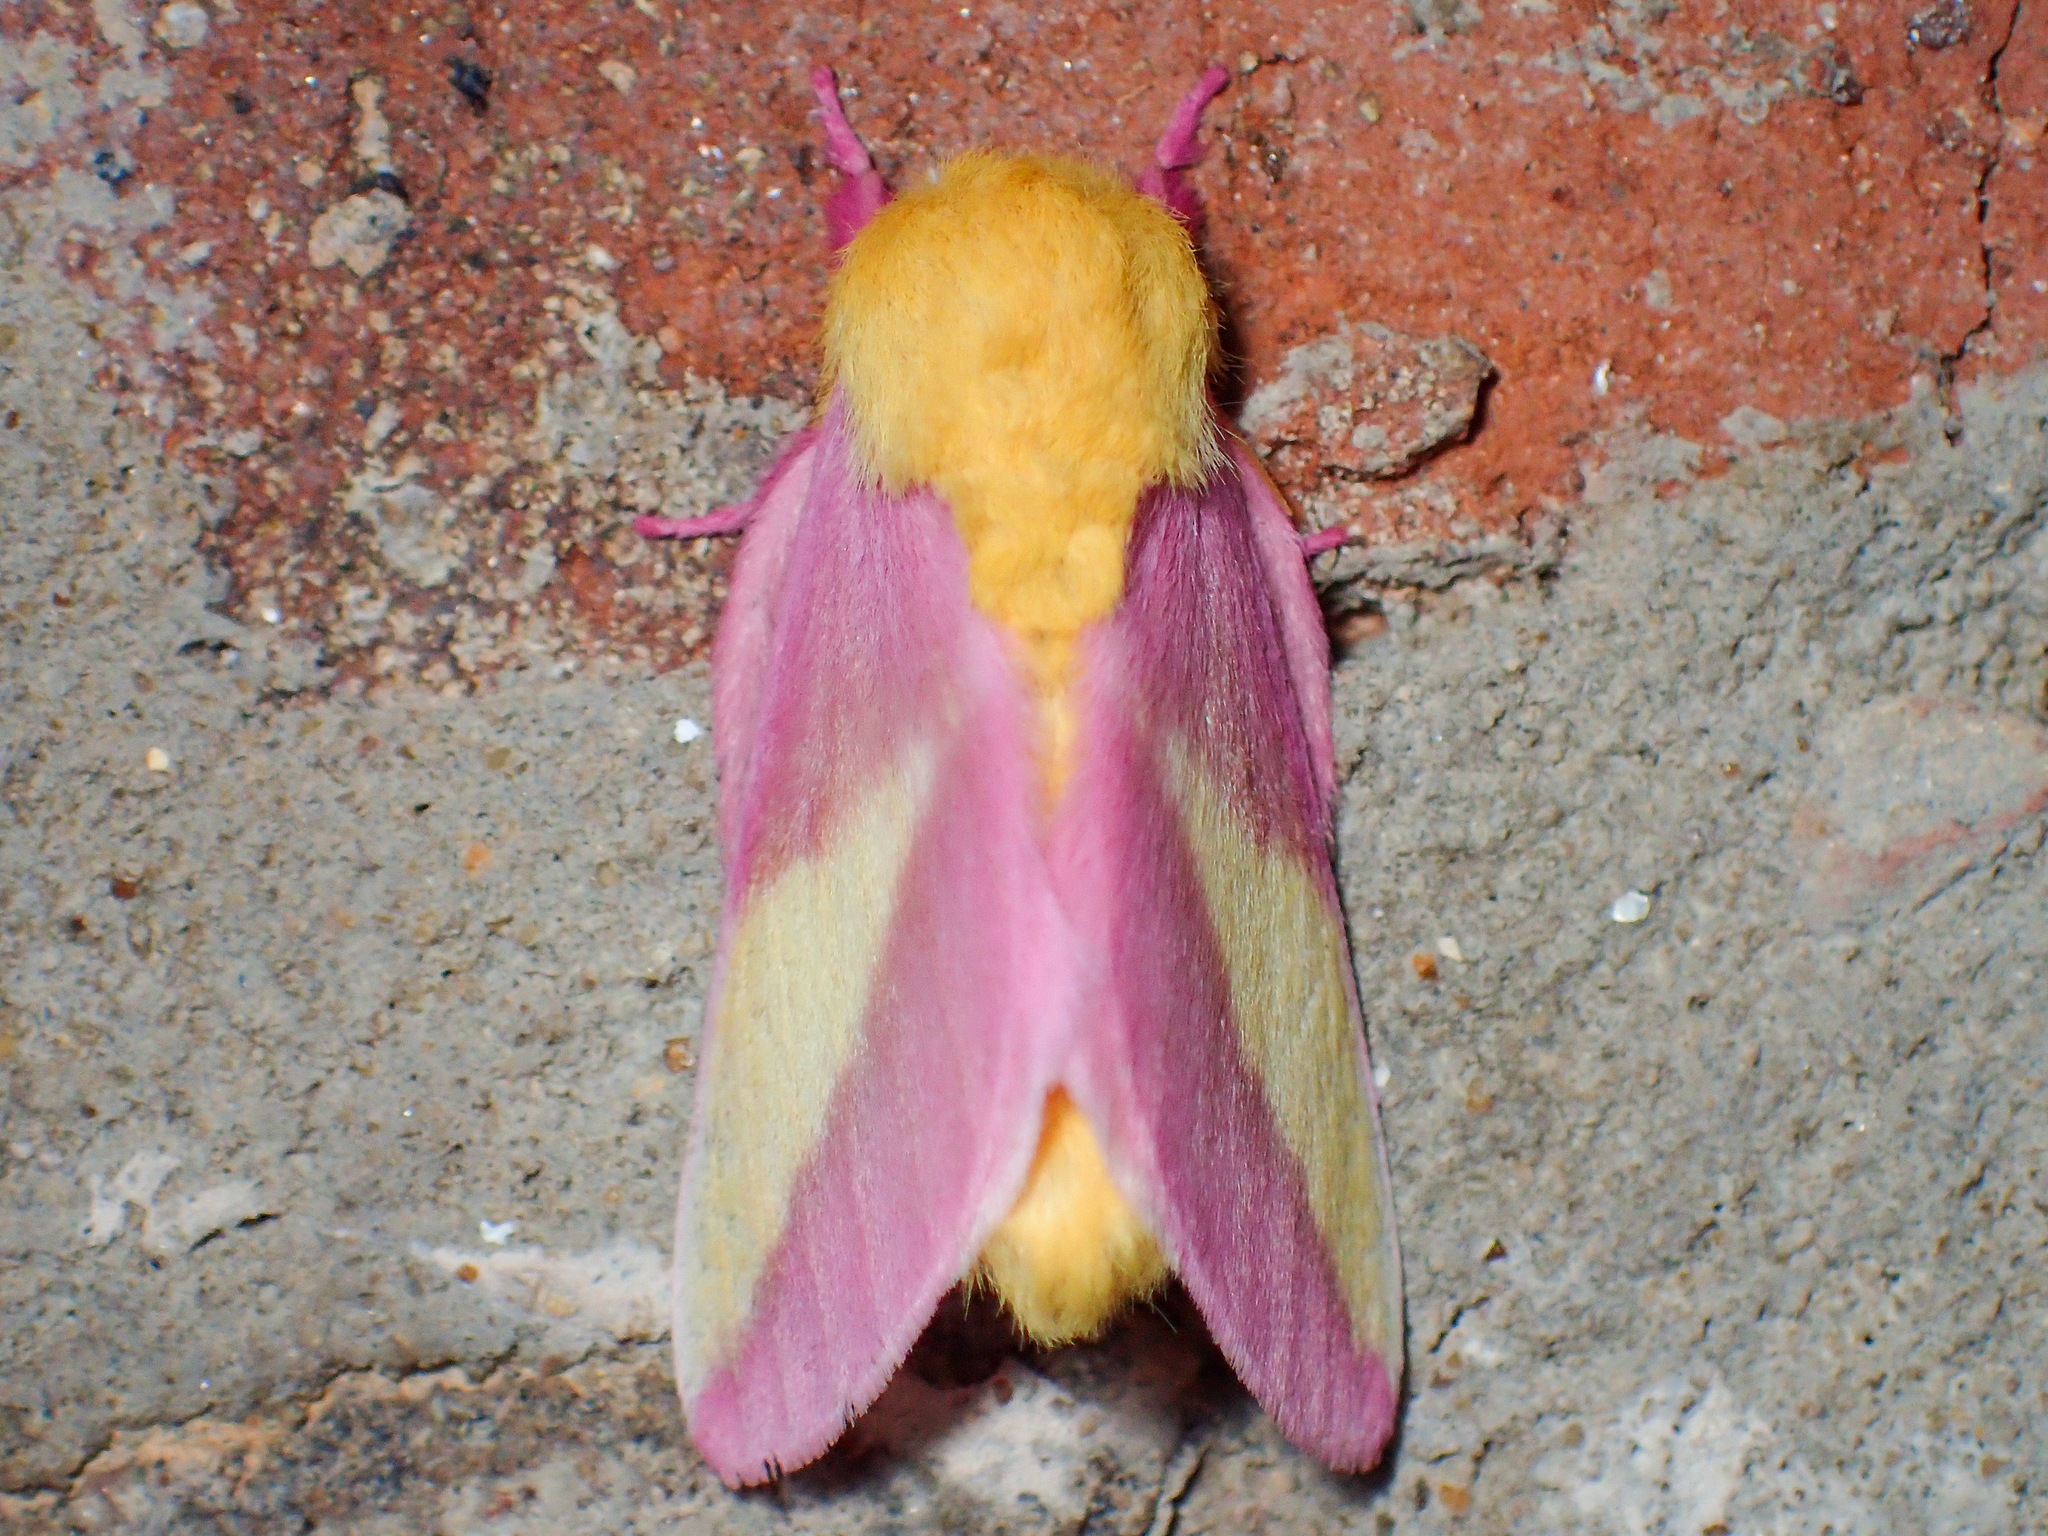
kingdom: Animalia
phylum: Arthropoda
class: Insecta
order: Lepidoptera
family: Saturniidae
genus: Dryocampa
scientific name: Dryocampa rubicunda
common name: Rosy maple moth
